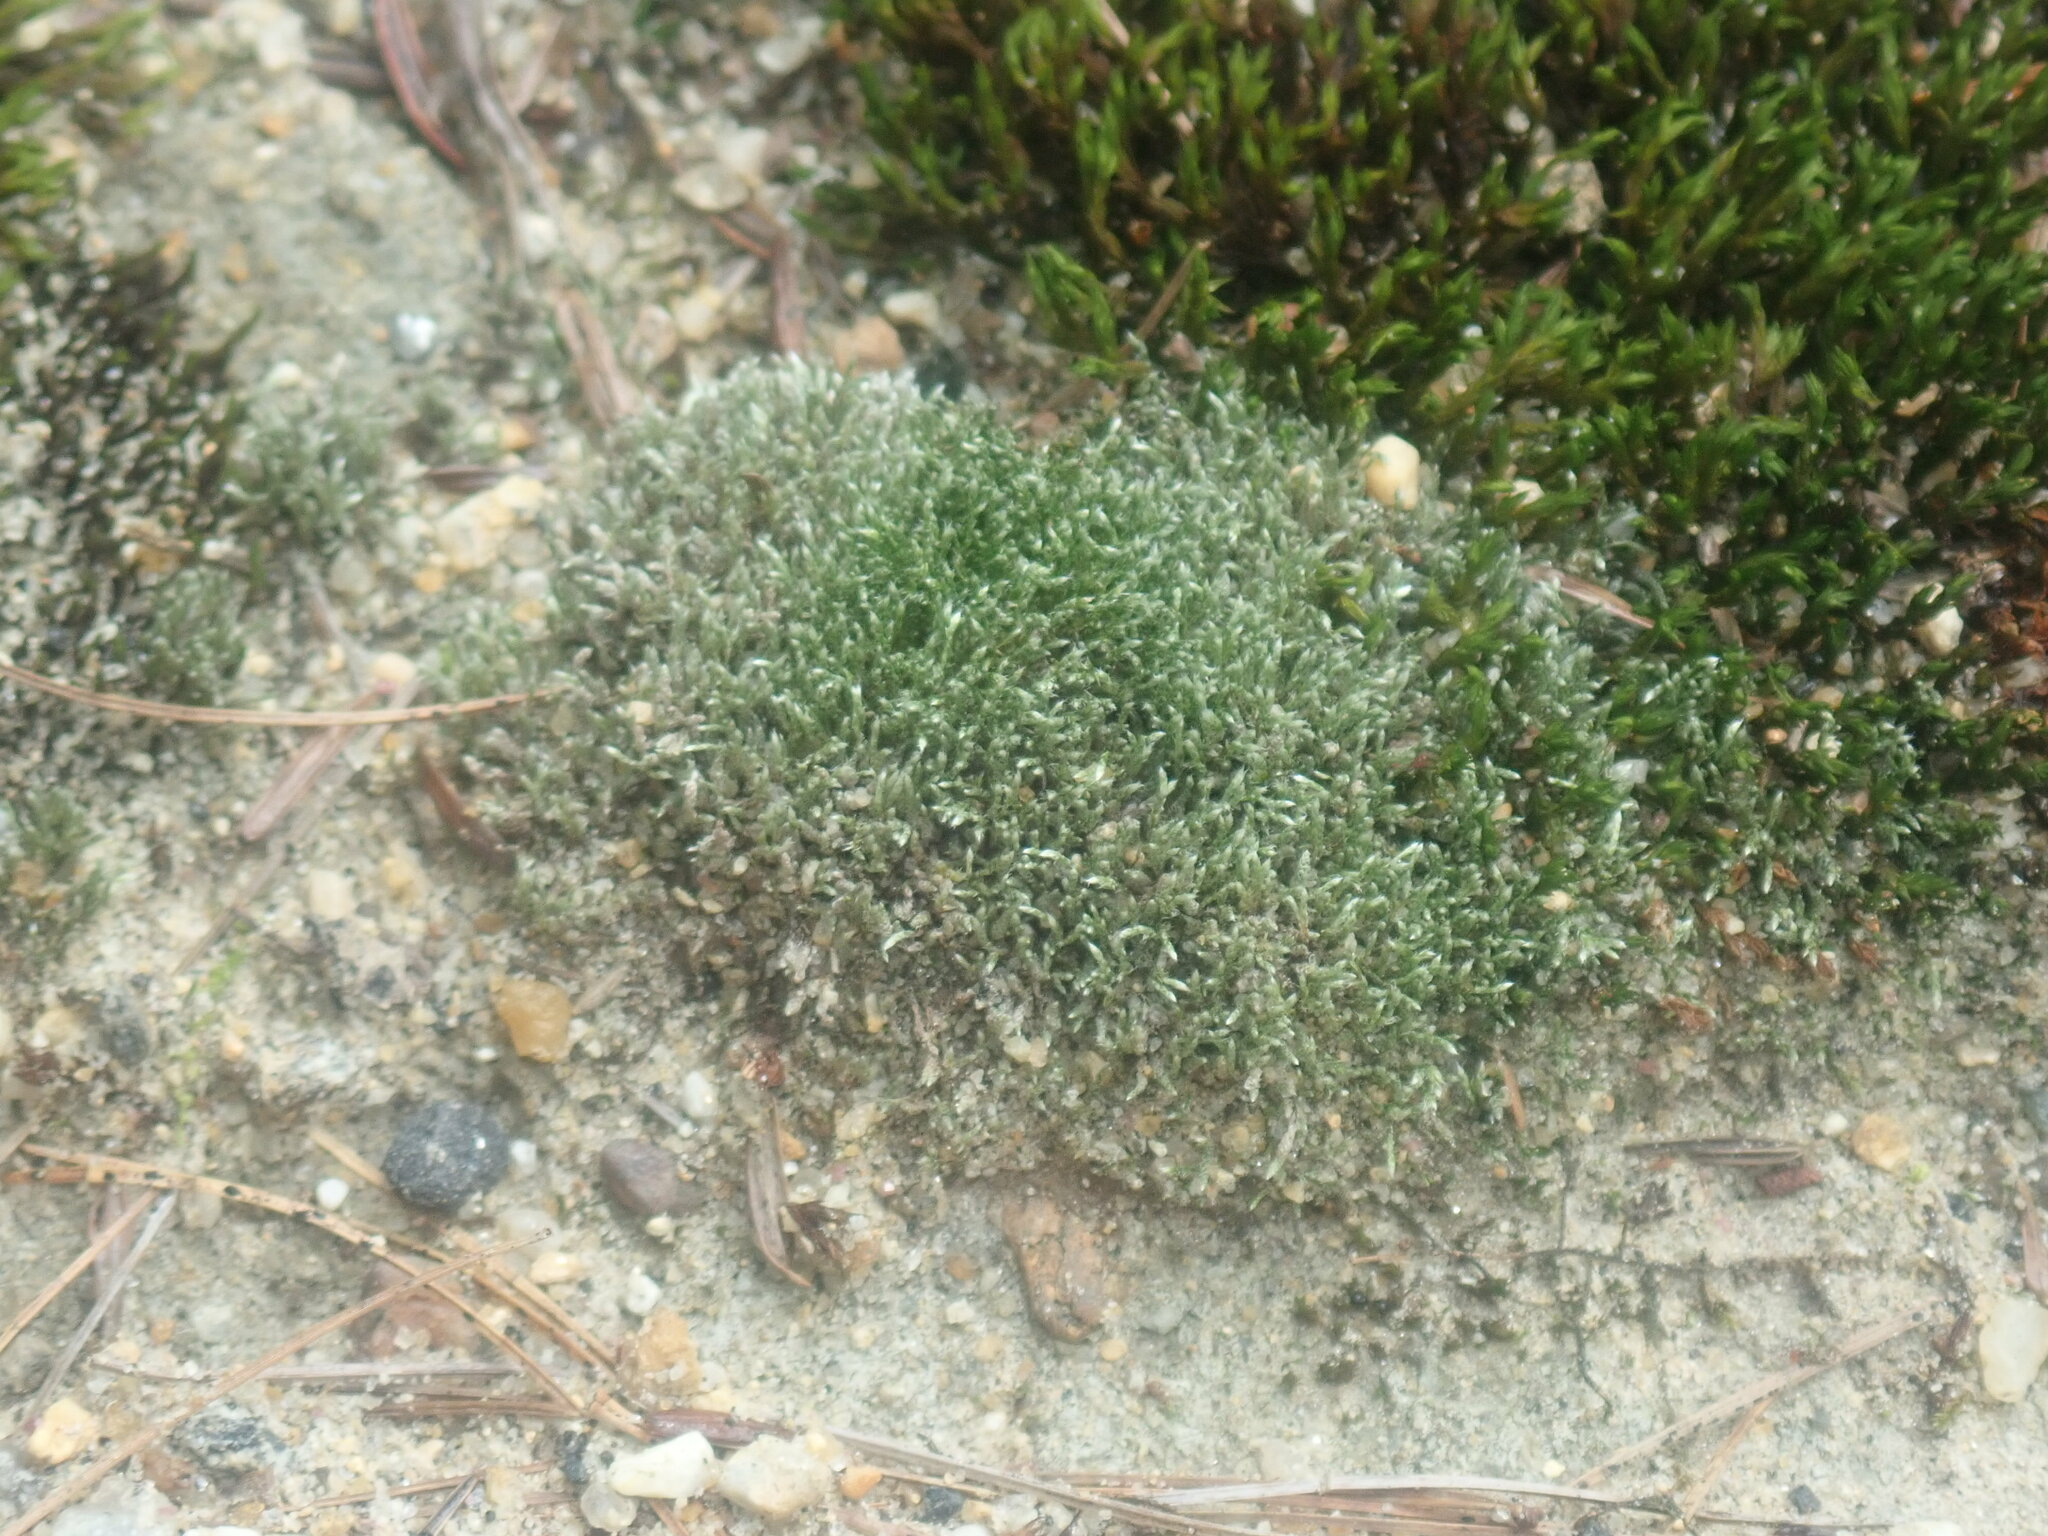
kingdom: Plantae
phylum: Bryophyta
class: Bryopsida
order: Bryales
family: Bryaceae
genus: Bryum
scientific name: Bryum argenteum
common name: Silver-moss
